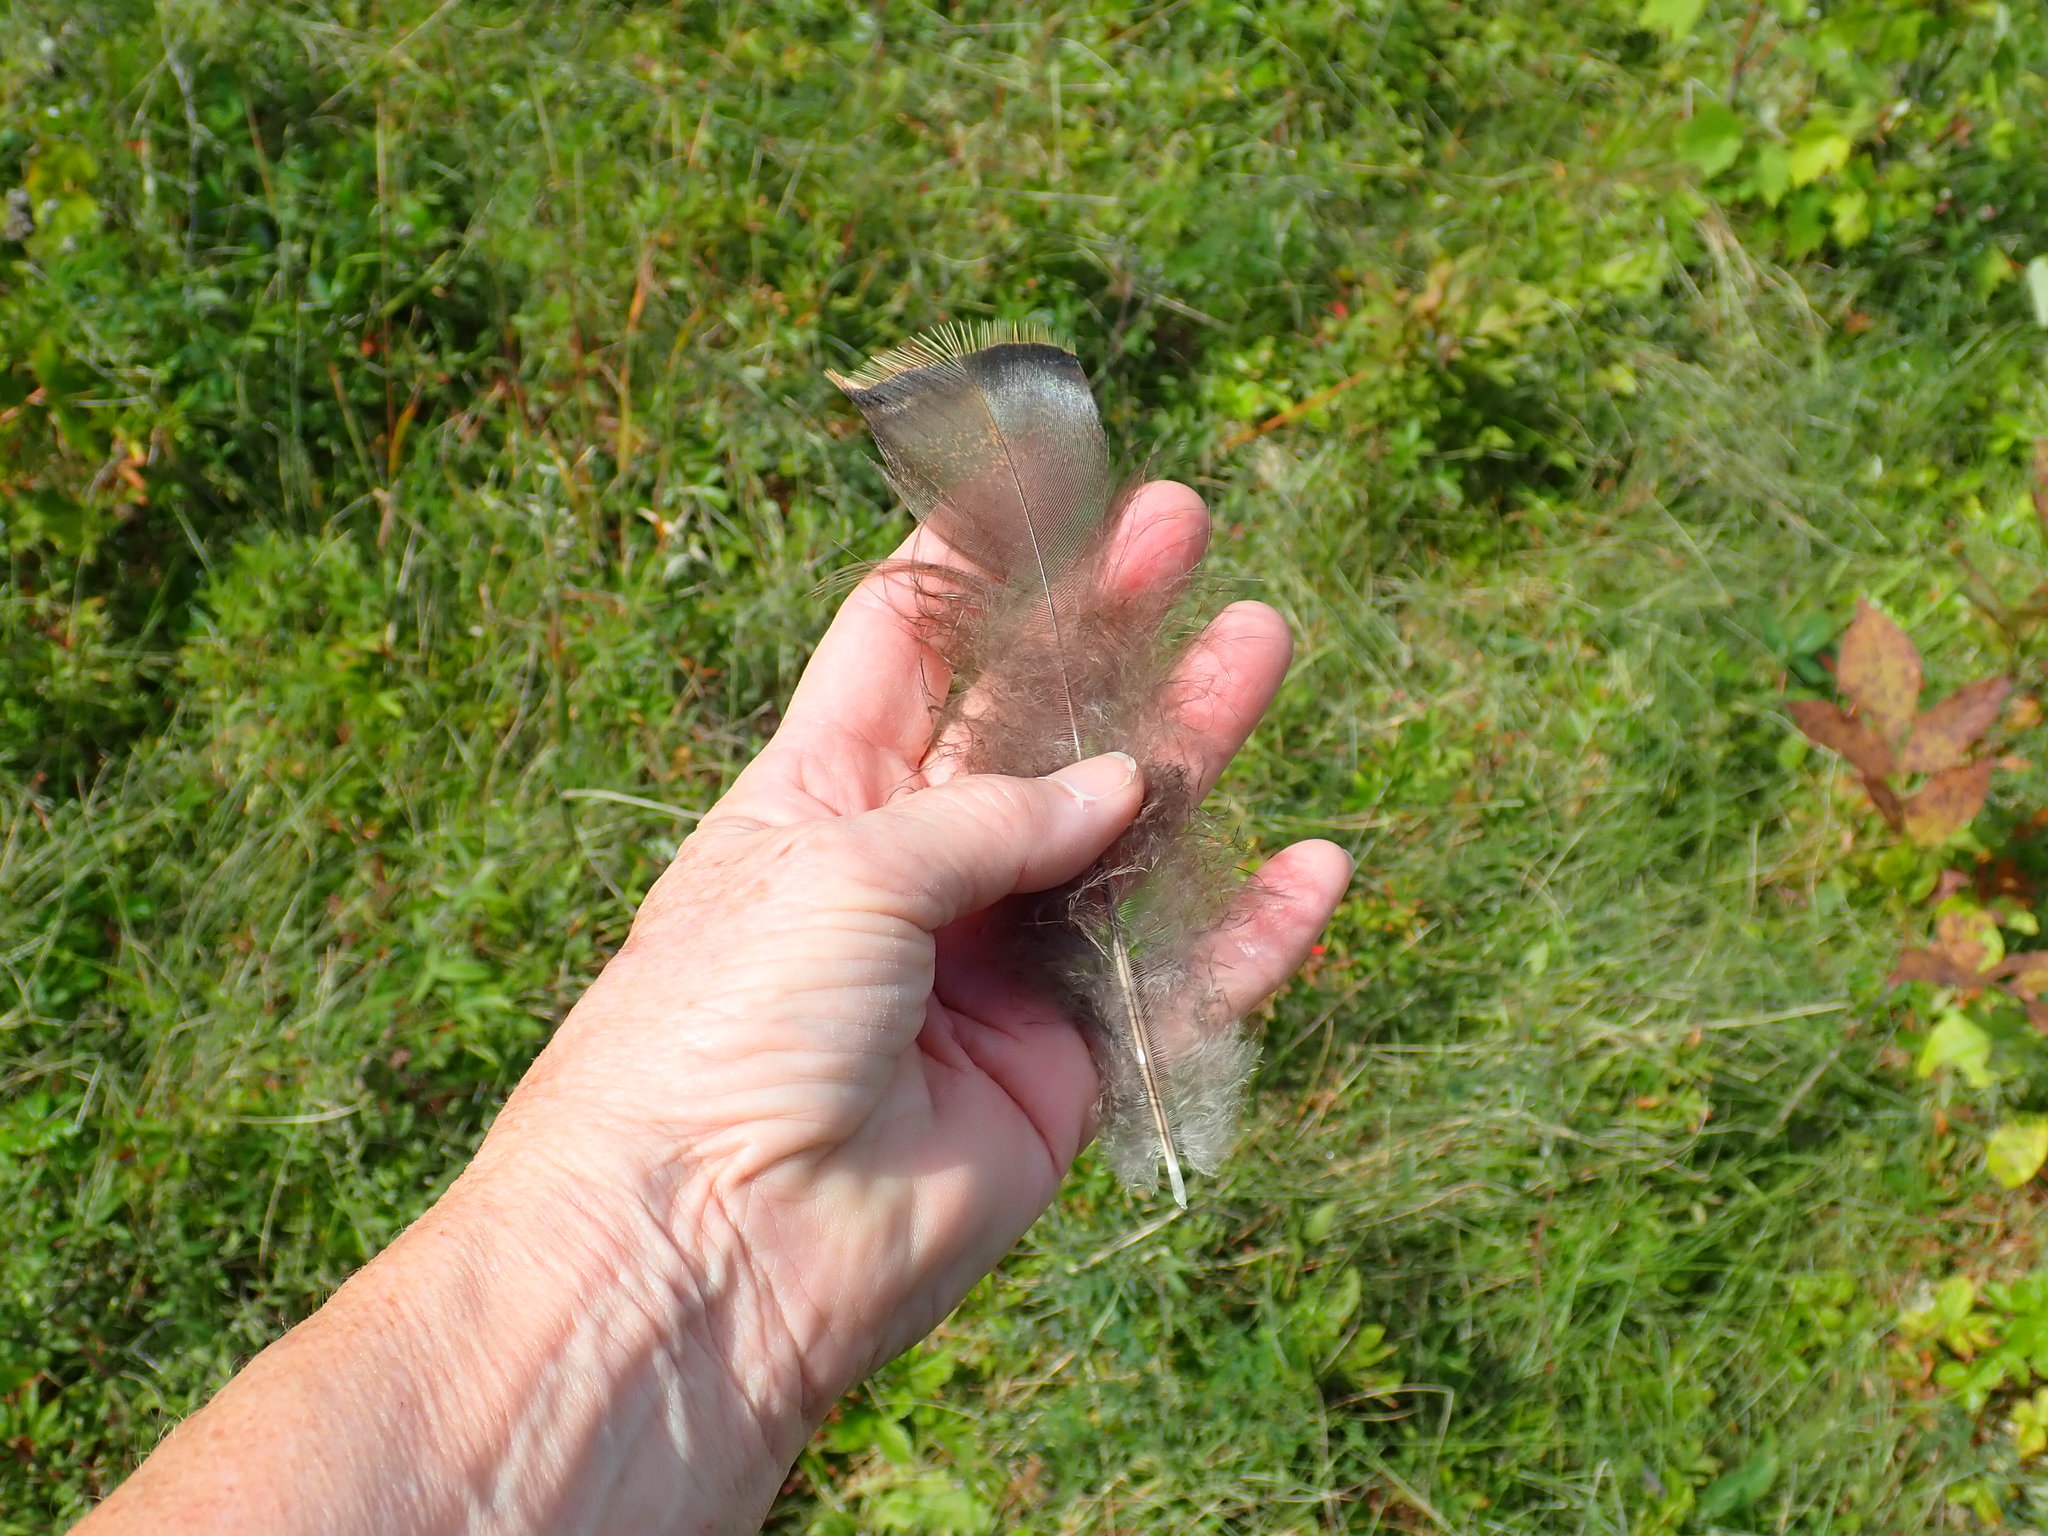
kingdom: Animalia
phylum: Chordata
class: Aves
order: Galliformes
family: Phasianidae
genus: Meleagris
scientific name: Meleagris gallopavo
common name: Wild turkey
